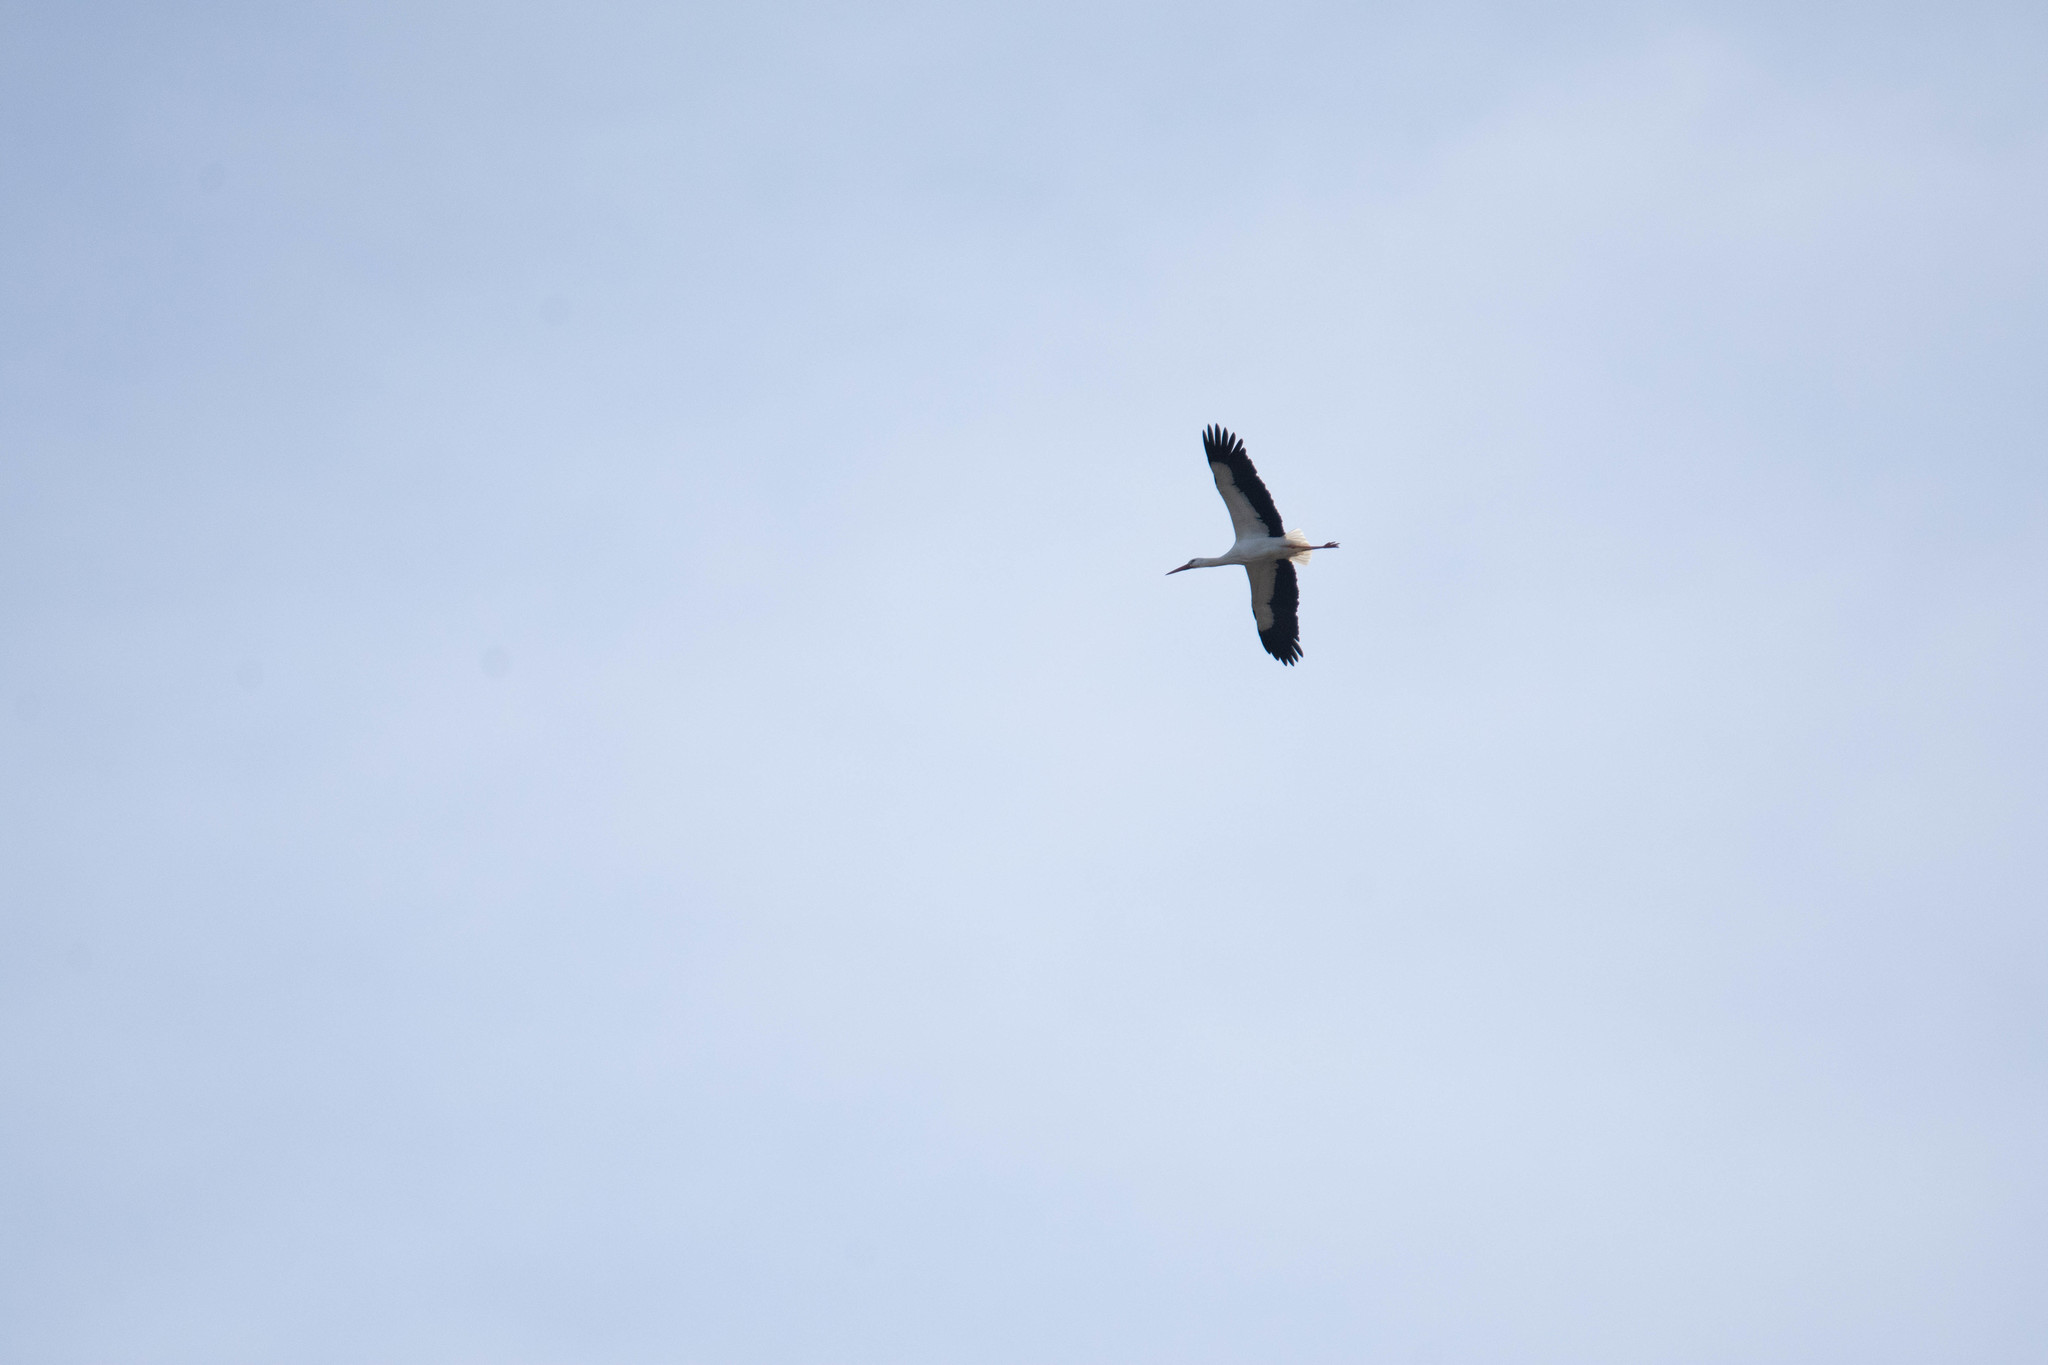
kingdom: Animalia
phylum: Chordata
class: Aves
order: Ciconiiformes
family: Ciconiidae
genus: Ciconia
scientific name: Ciconia ciconia
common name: White stork
